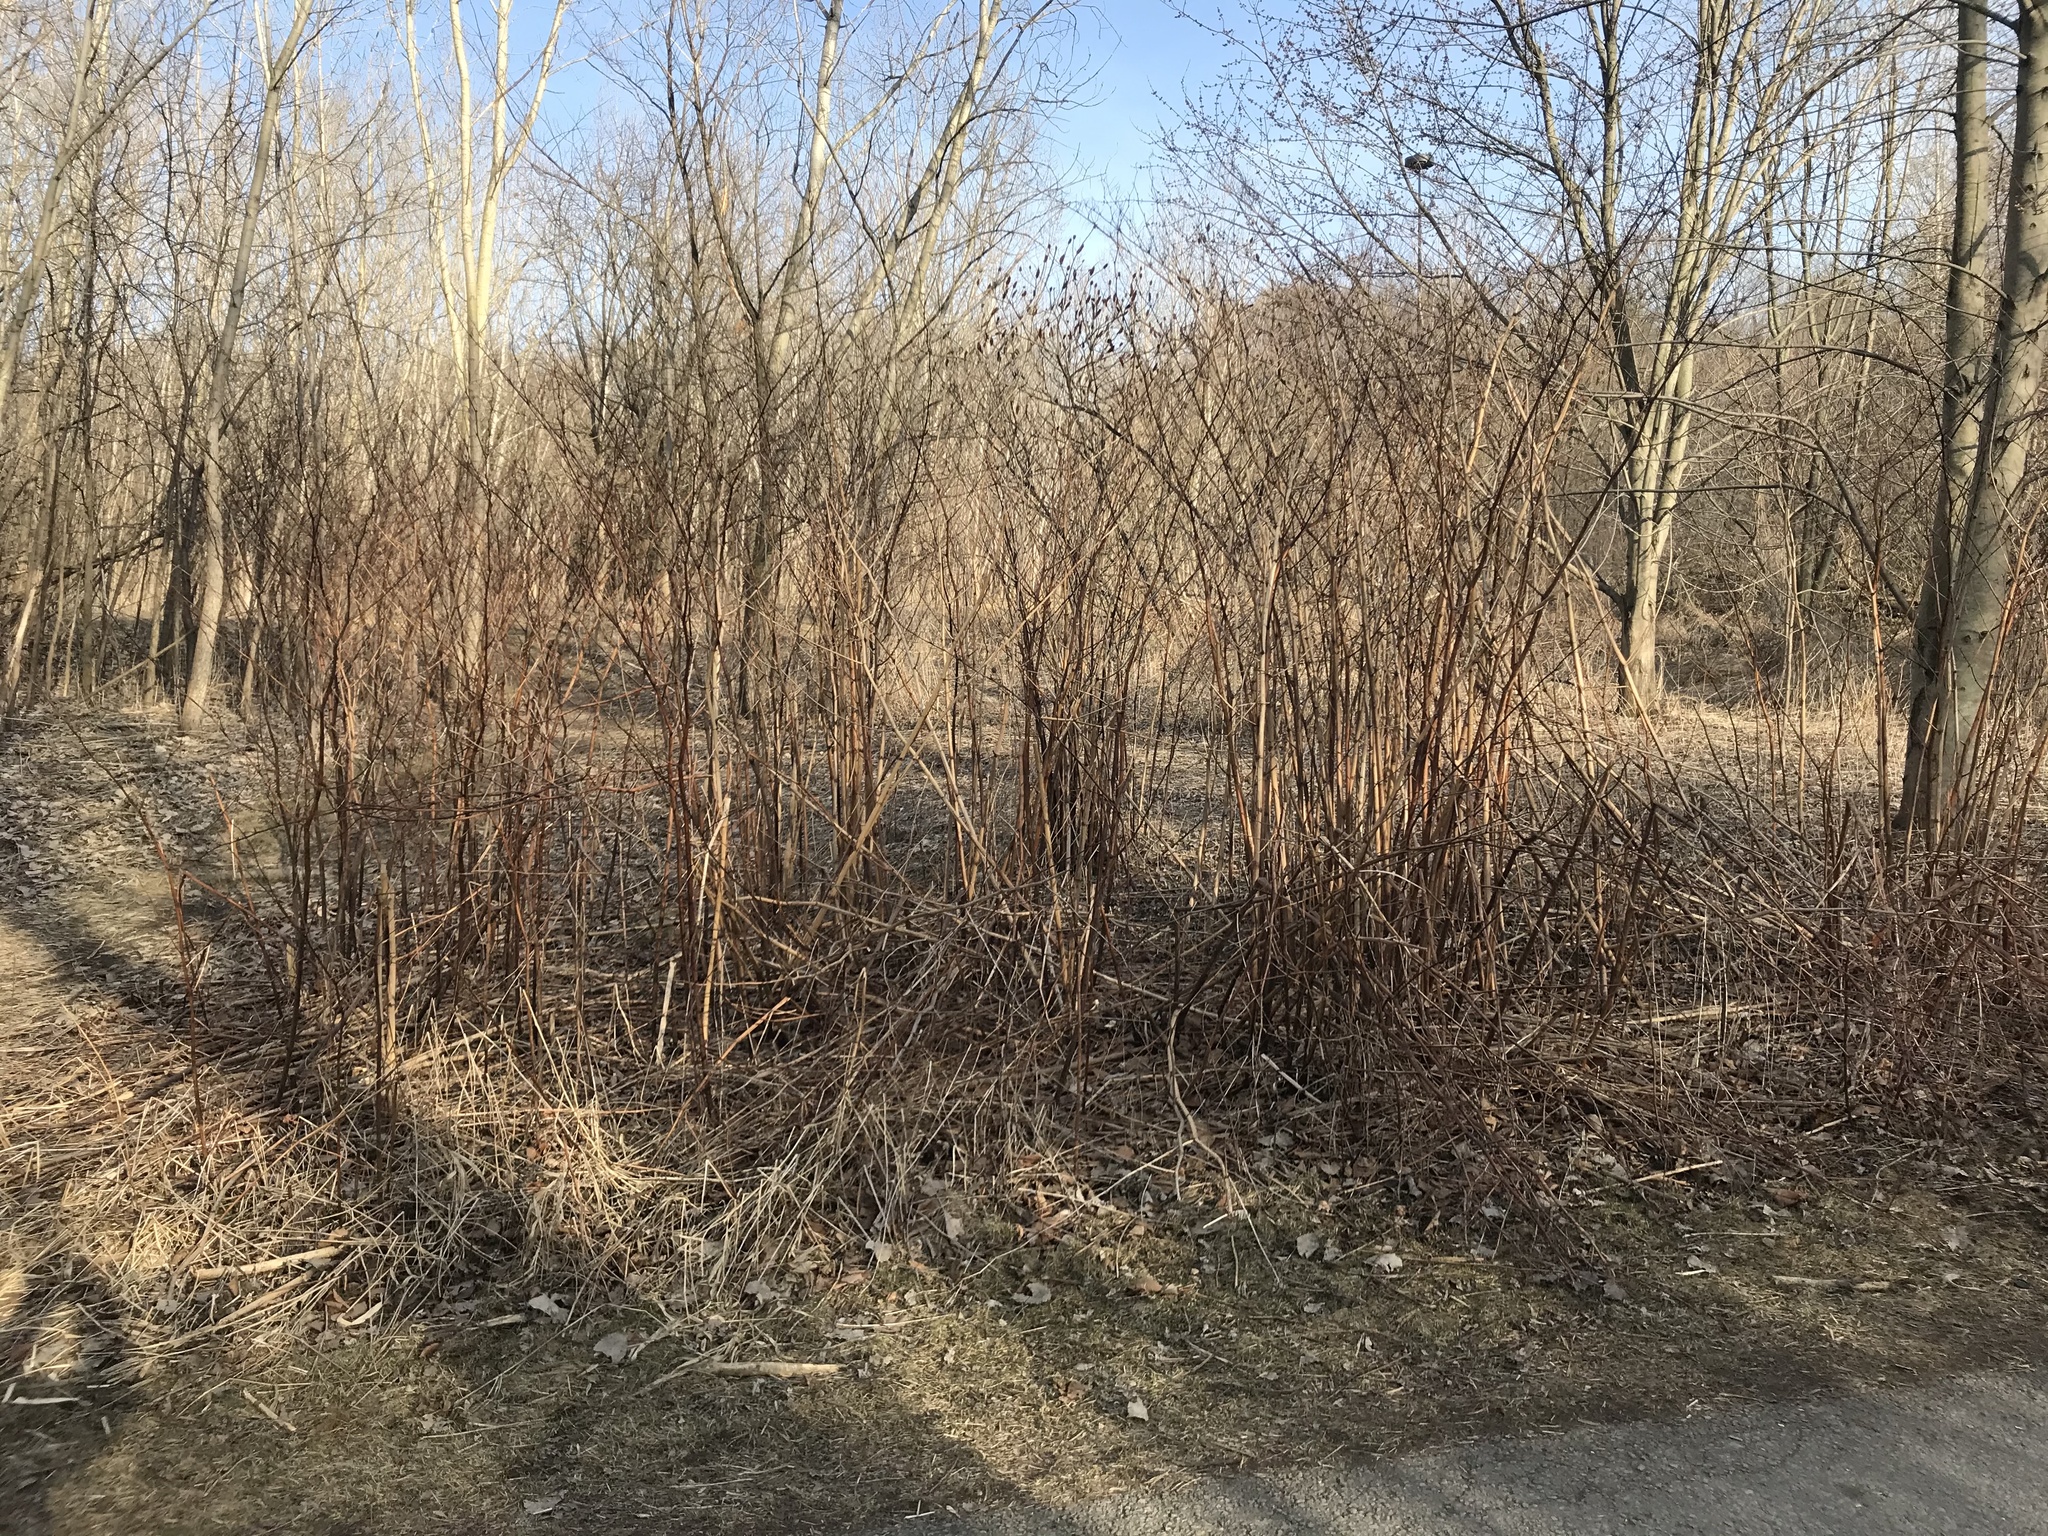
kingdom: Plantae
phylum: Tracheophyta
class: Magnoliopsida
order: Caryophyllales
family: Polygonaceae
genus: Reynoutria
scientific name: Reynoutria japonica
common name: Japanese knotweed
